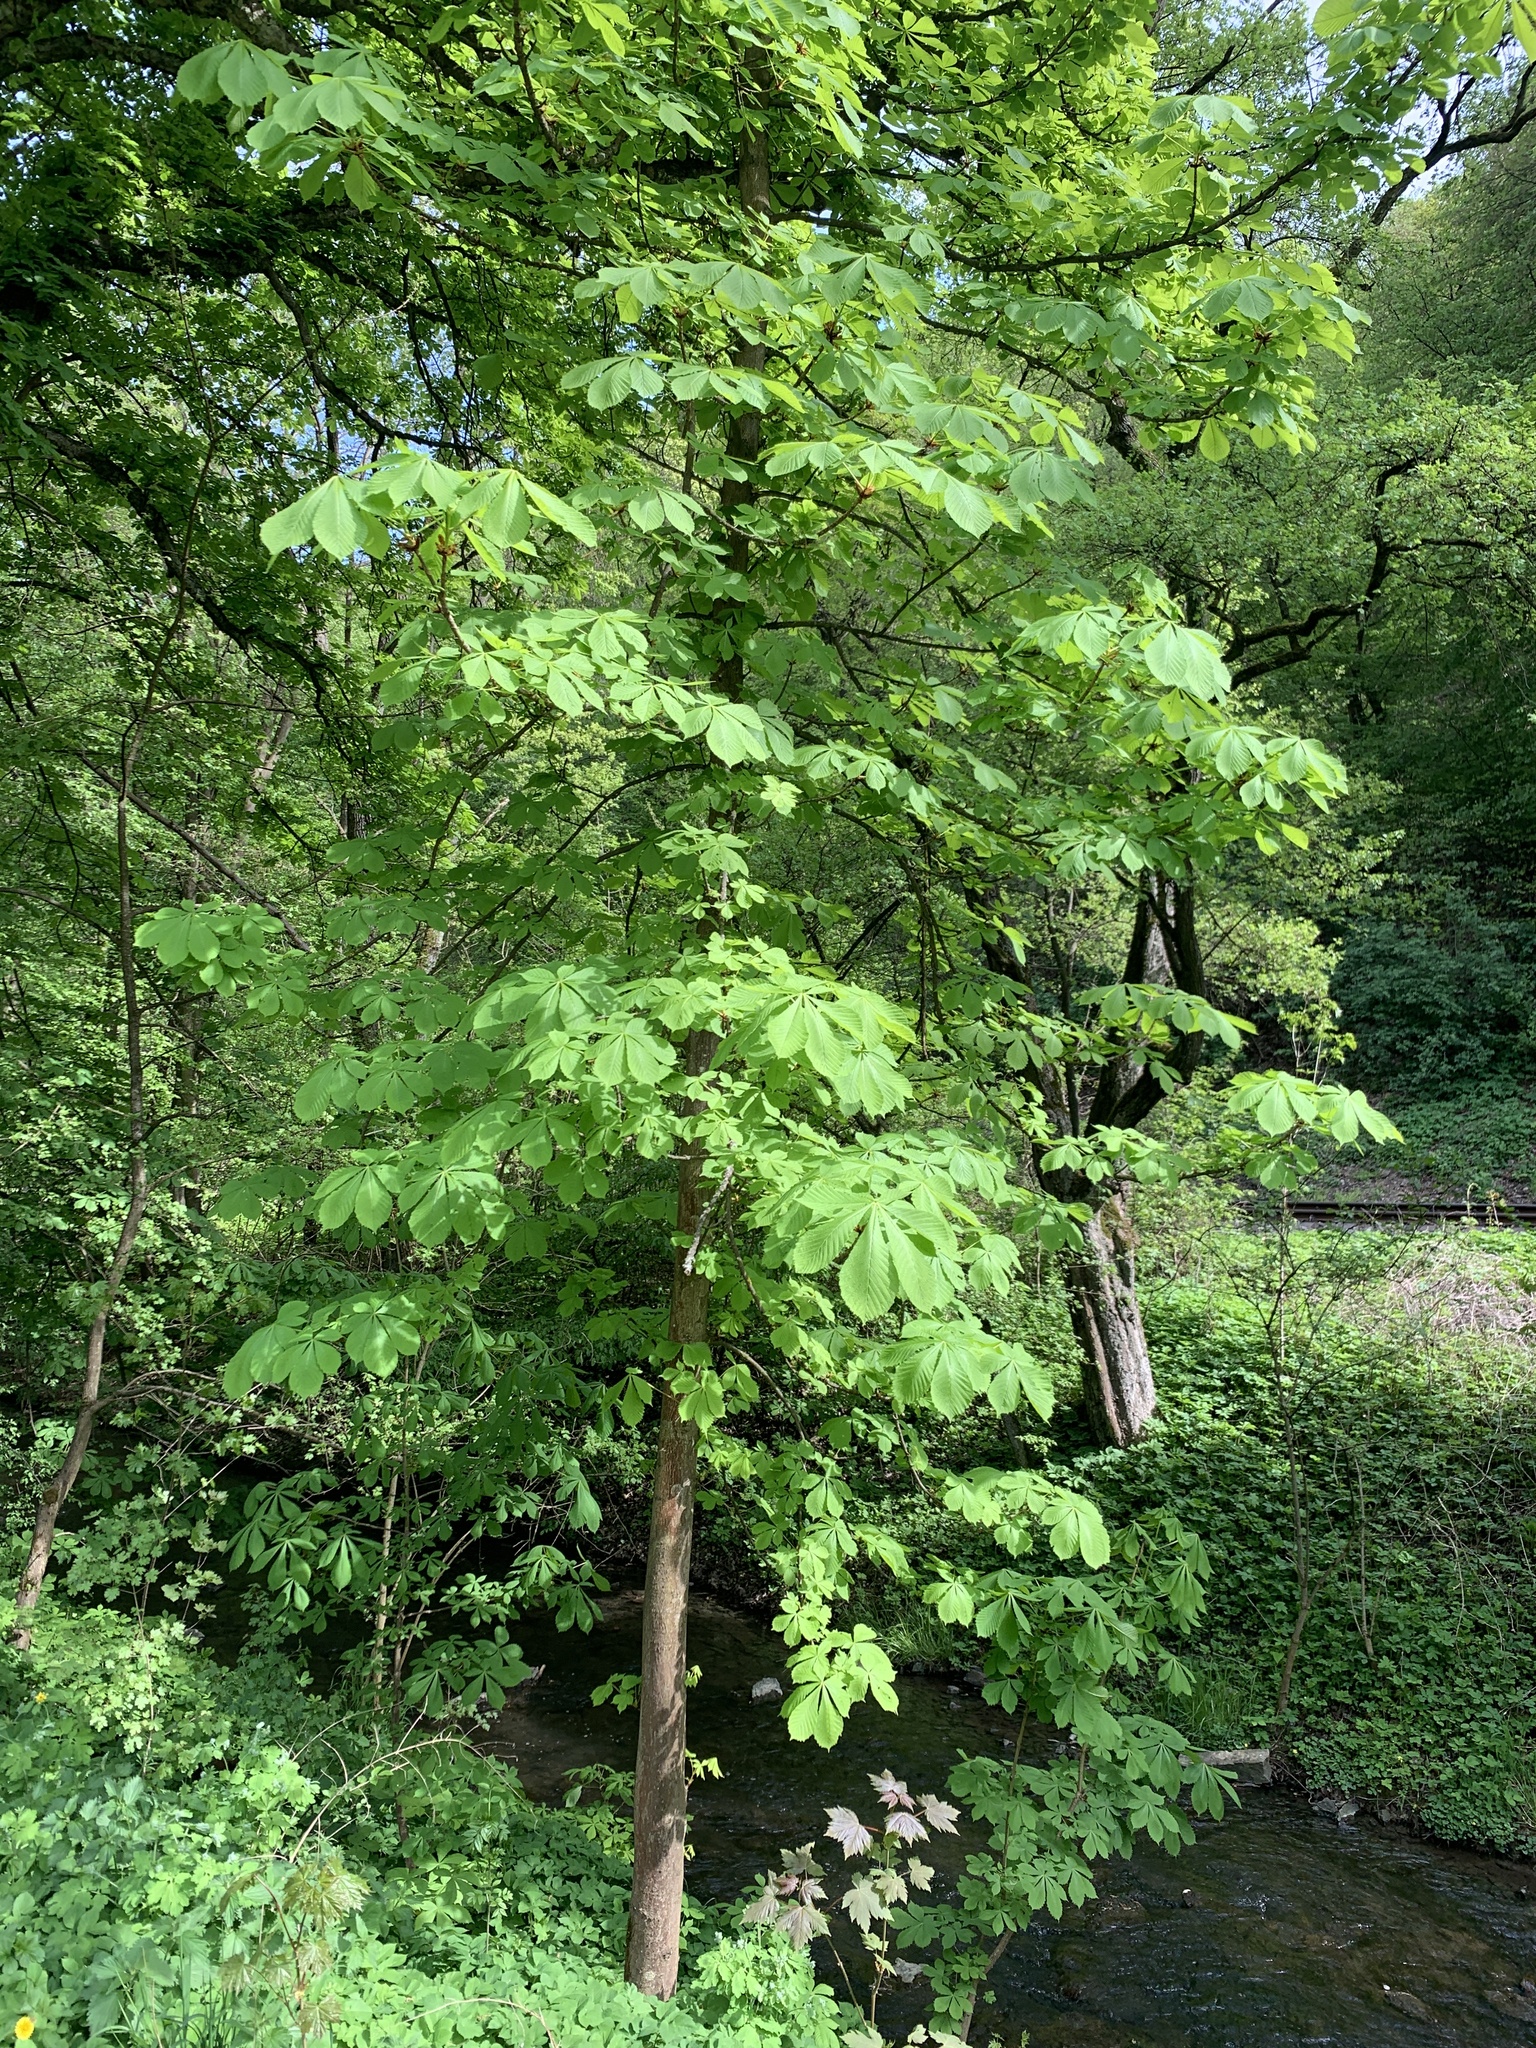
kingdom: Plantae
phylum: Tracheophyta
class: Magnoliopsida
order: Sapindales
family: Sapindaceae
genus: Aesculus
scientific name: Aesculus hippocastanum
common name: Horse-chestnut
